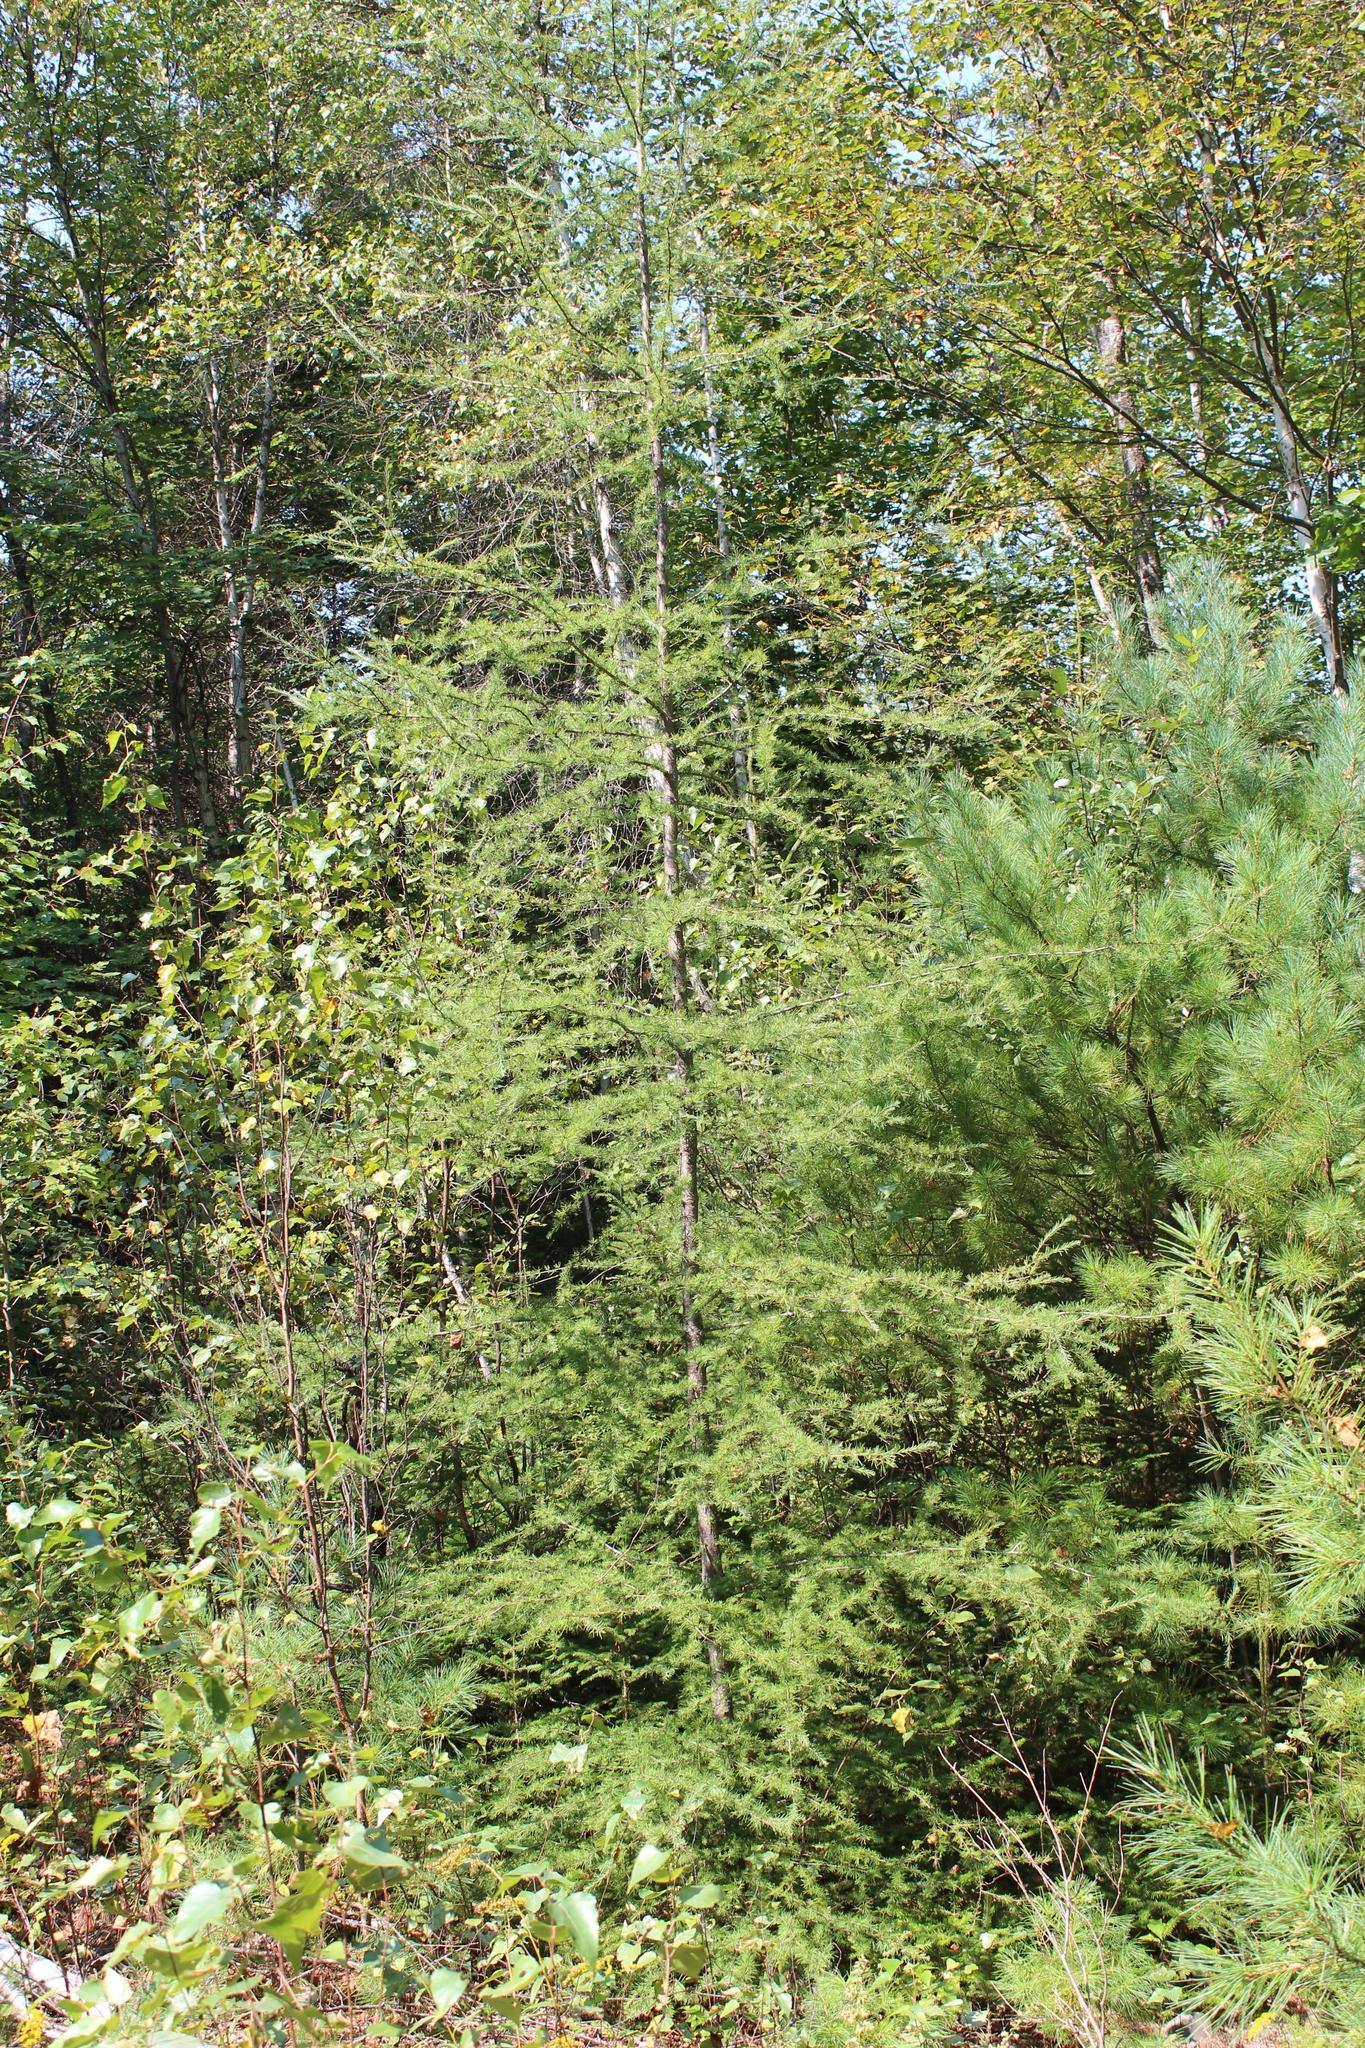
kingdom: Plantae
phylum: Tracheophyta
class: Pinopsida
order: Pinales
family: Pinaceae
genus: Larix
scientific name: Larix laricina
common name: American larch
